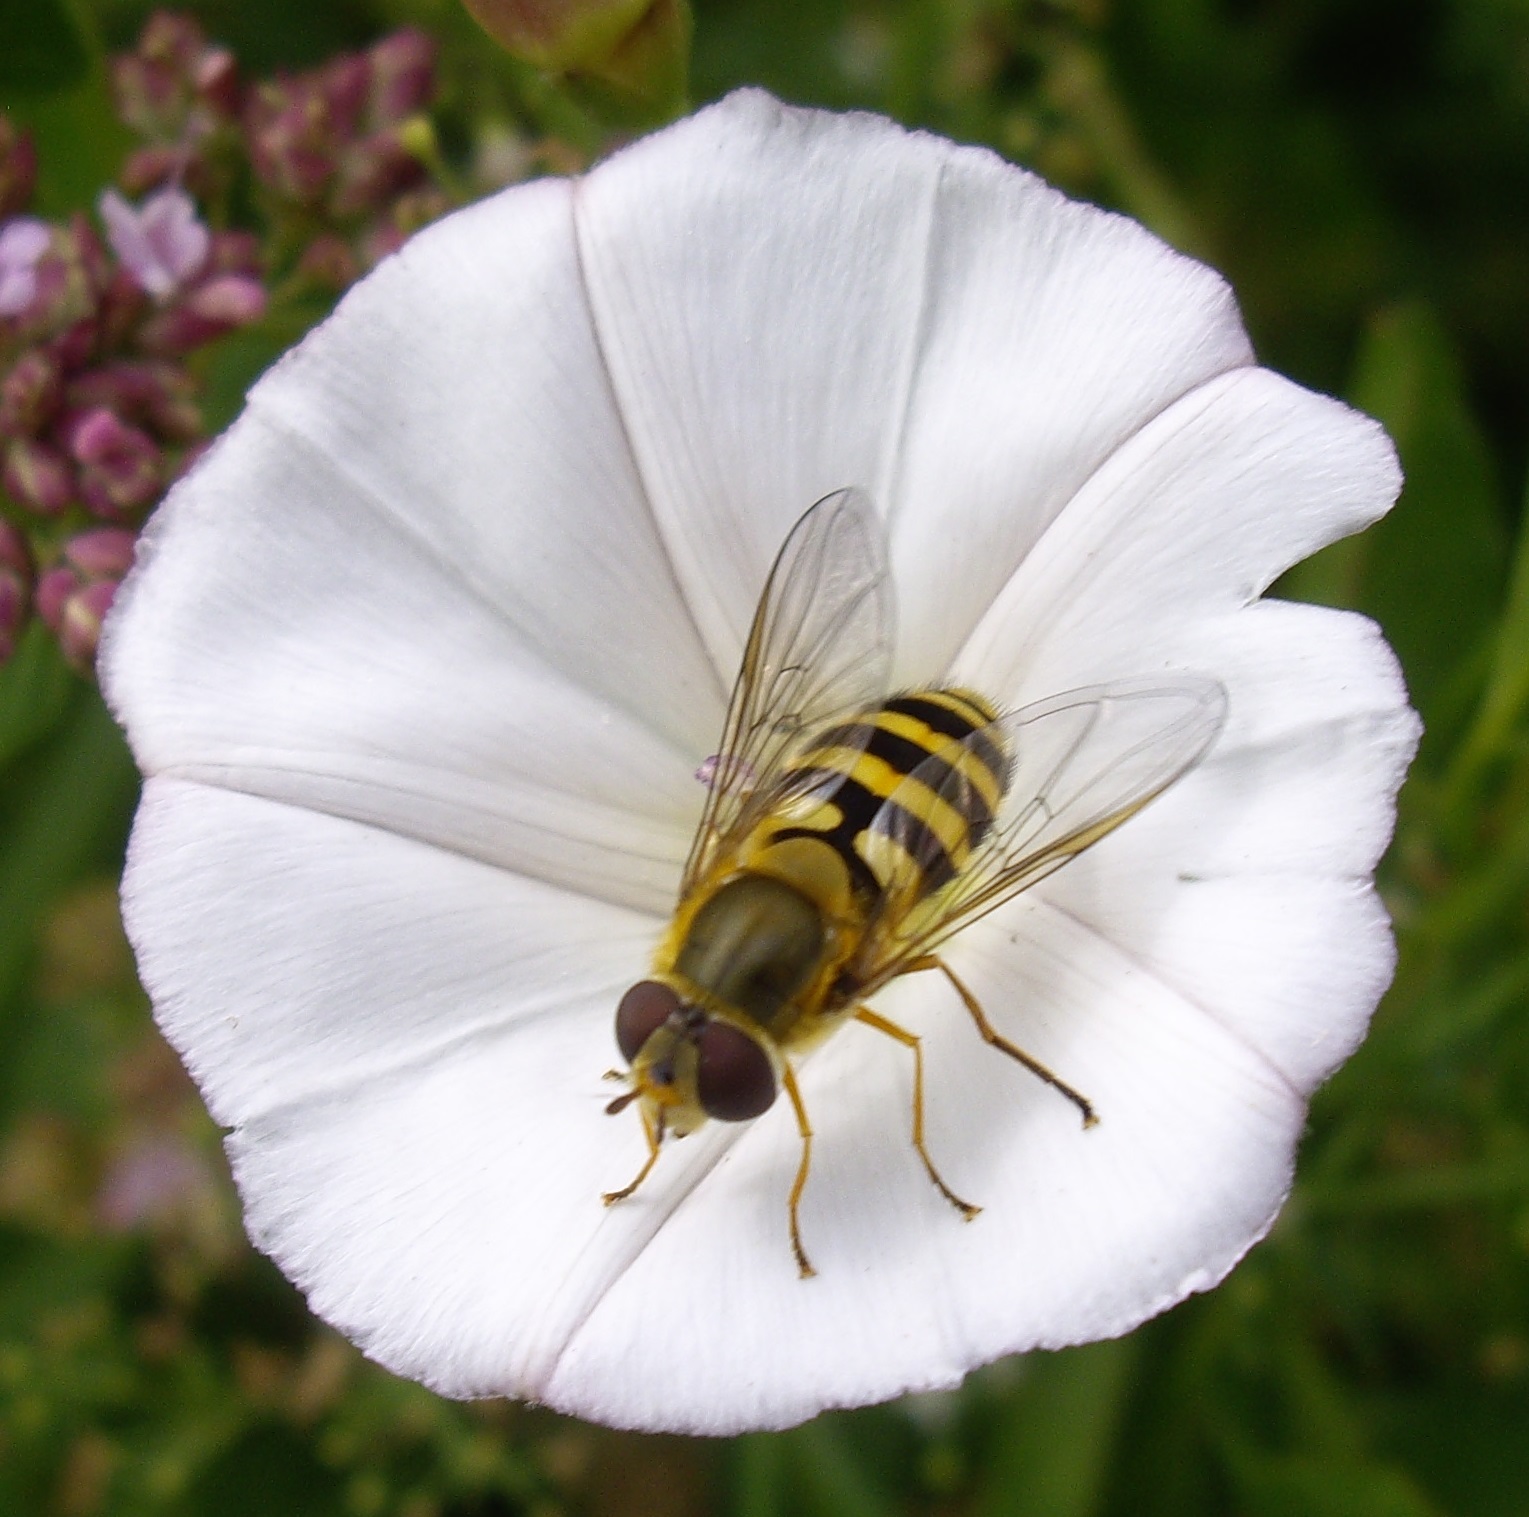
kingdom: Animalia
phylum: Arthropoda
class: Insecta
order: Diptera
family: Syrphidae
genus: Syrphus
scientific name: Syrphus
